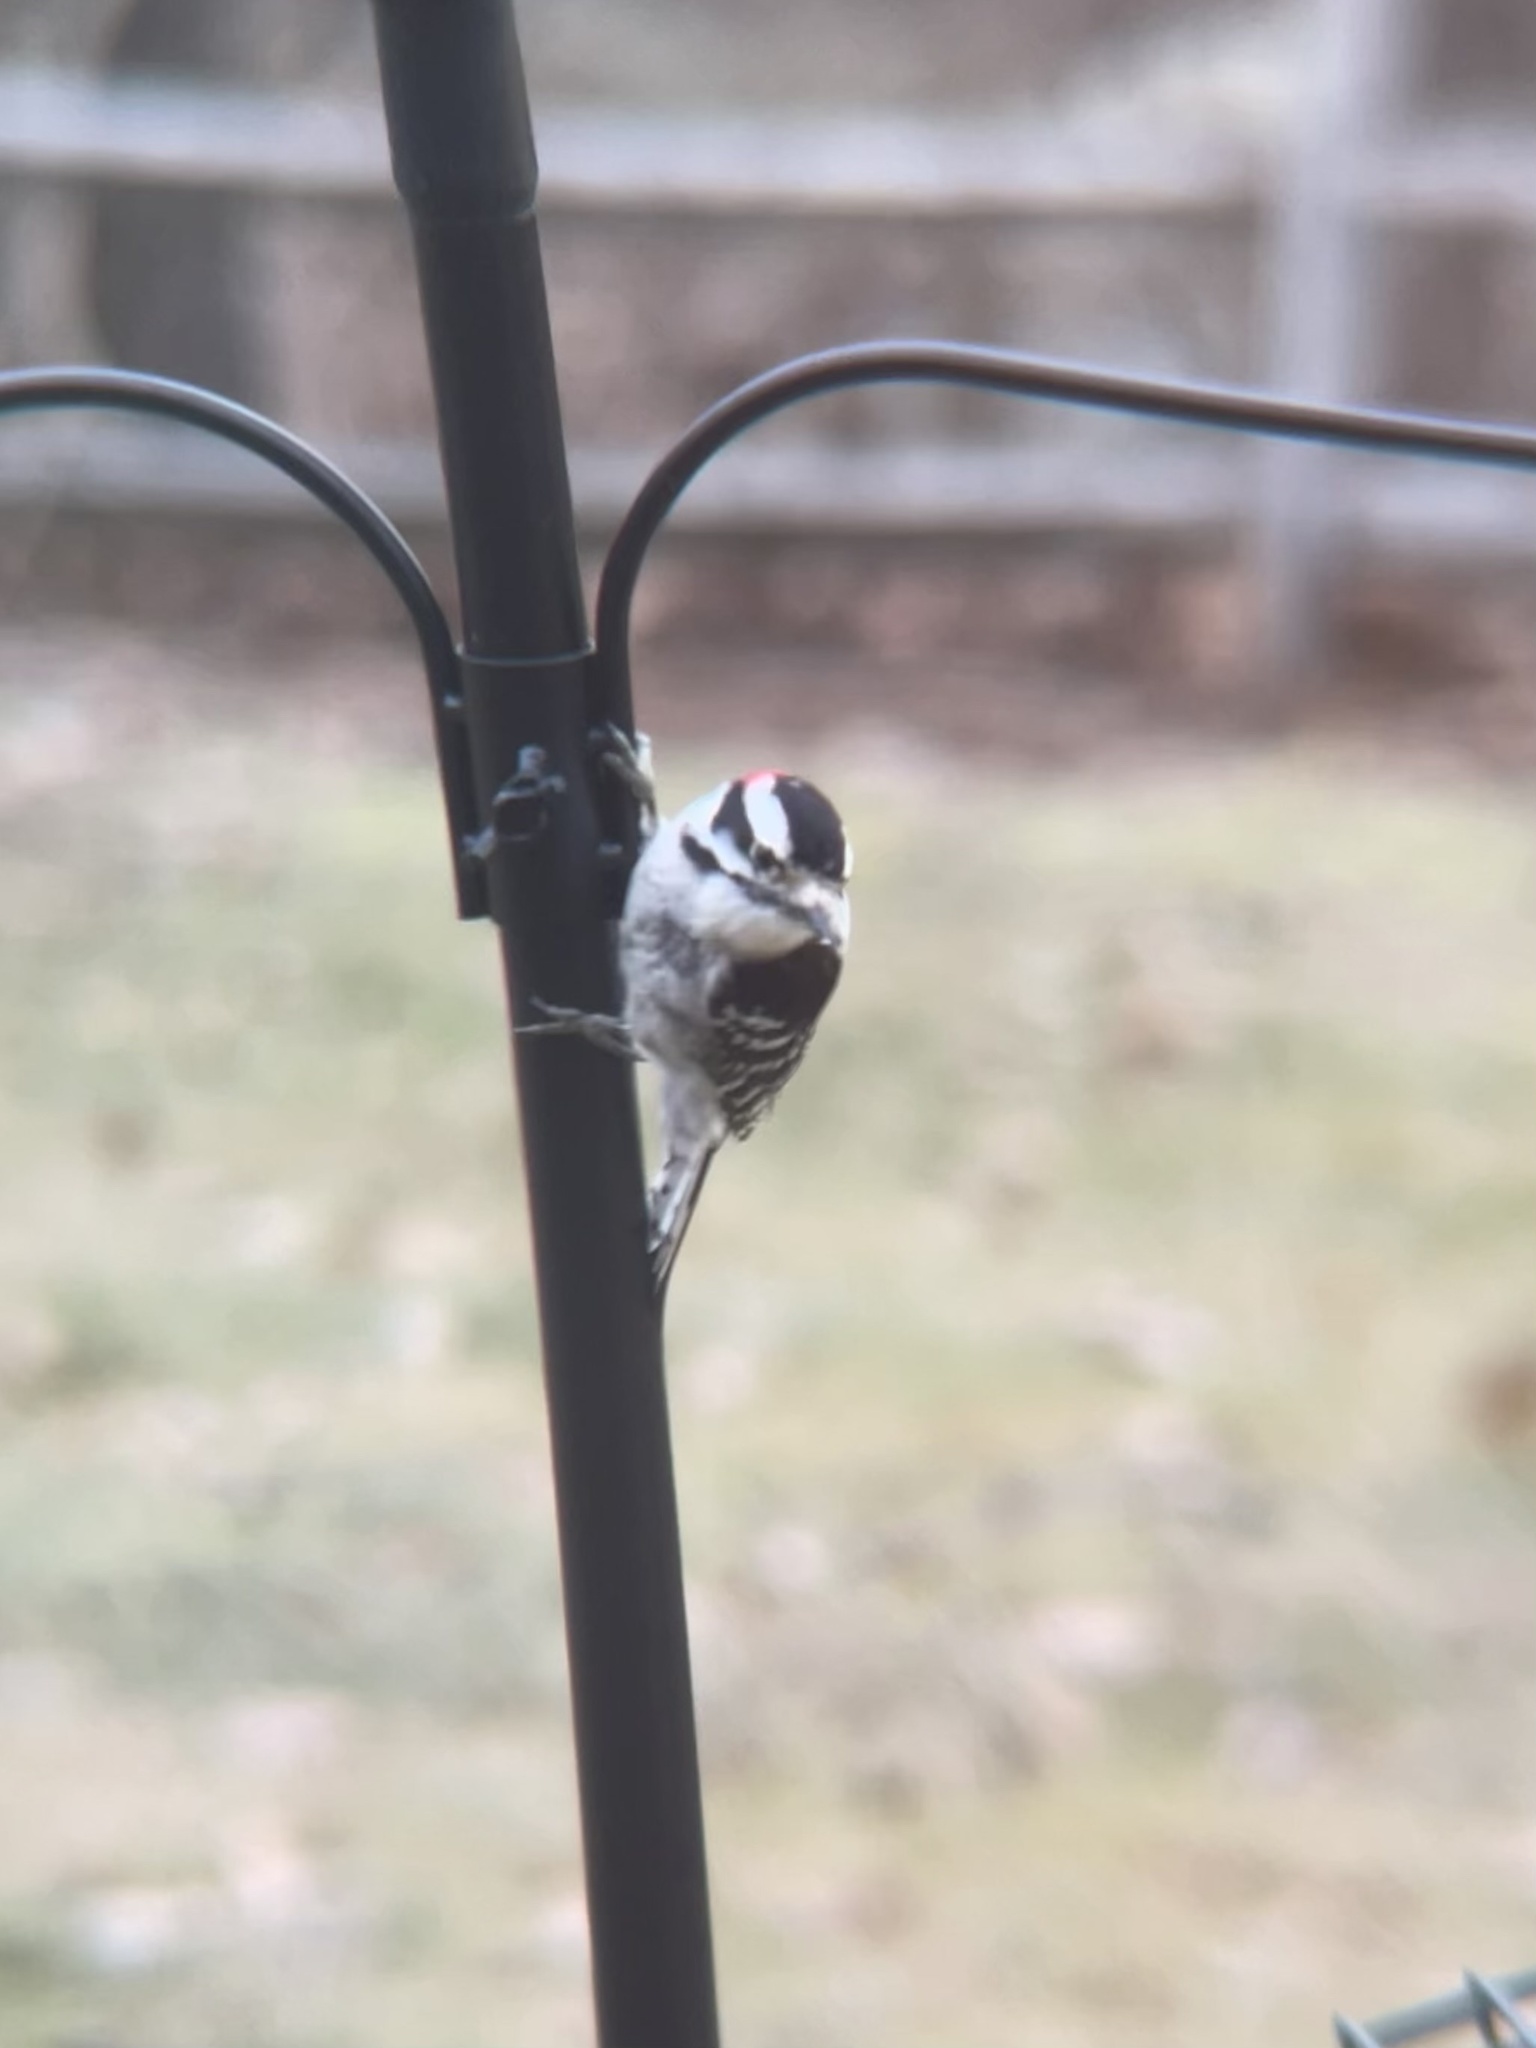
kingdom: Animalia
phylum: Chordata
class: Aves
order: Piciformes
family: Picidae
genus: Dryobates
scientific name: Dryobates pubescens
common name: Downy woodpecker
